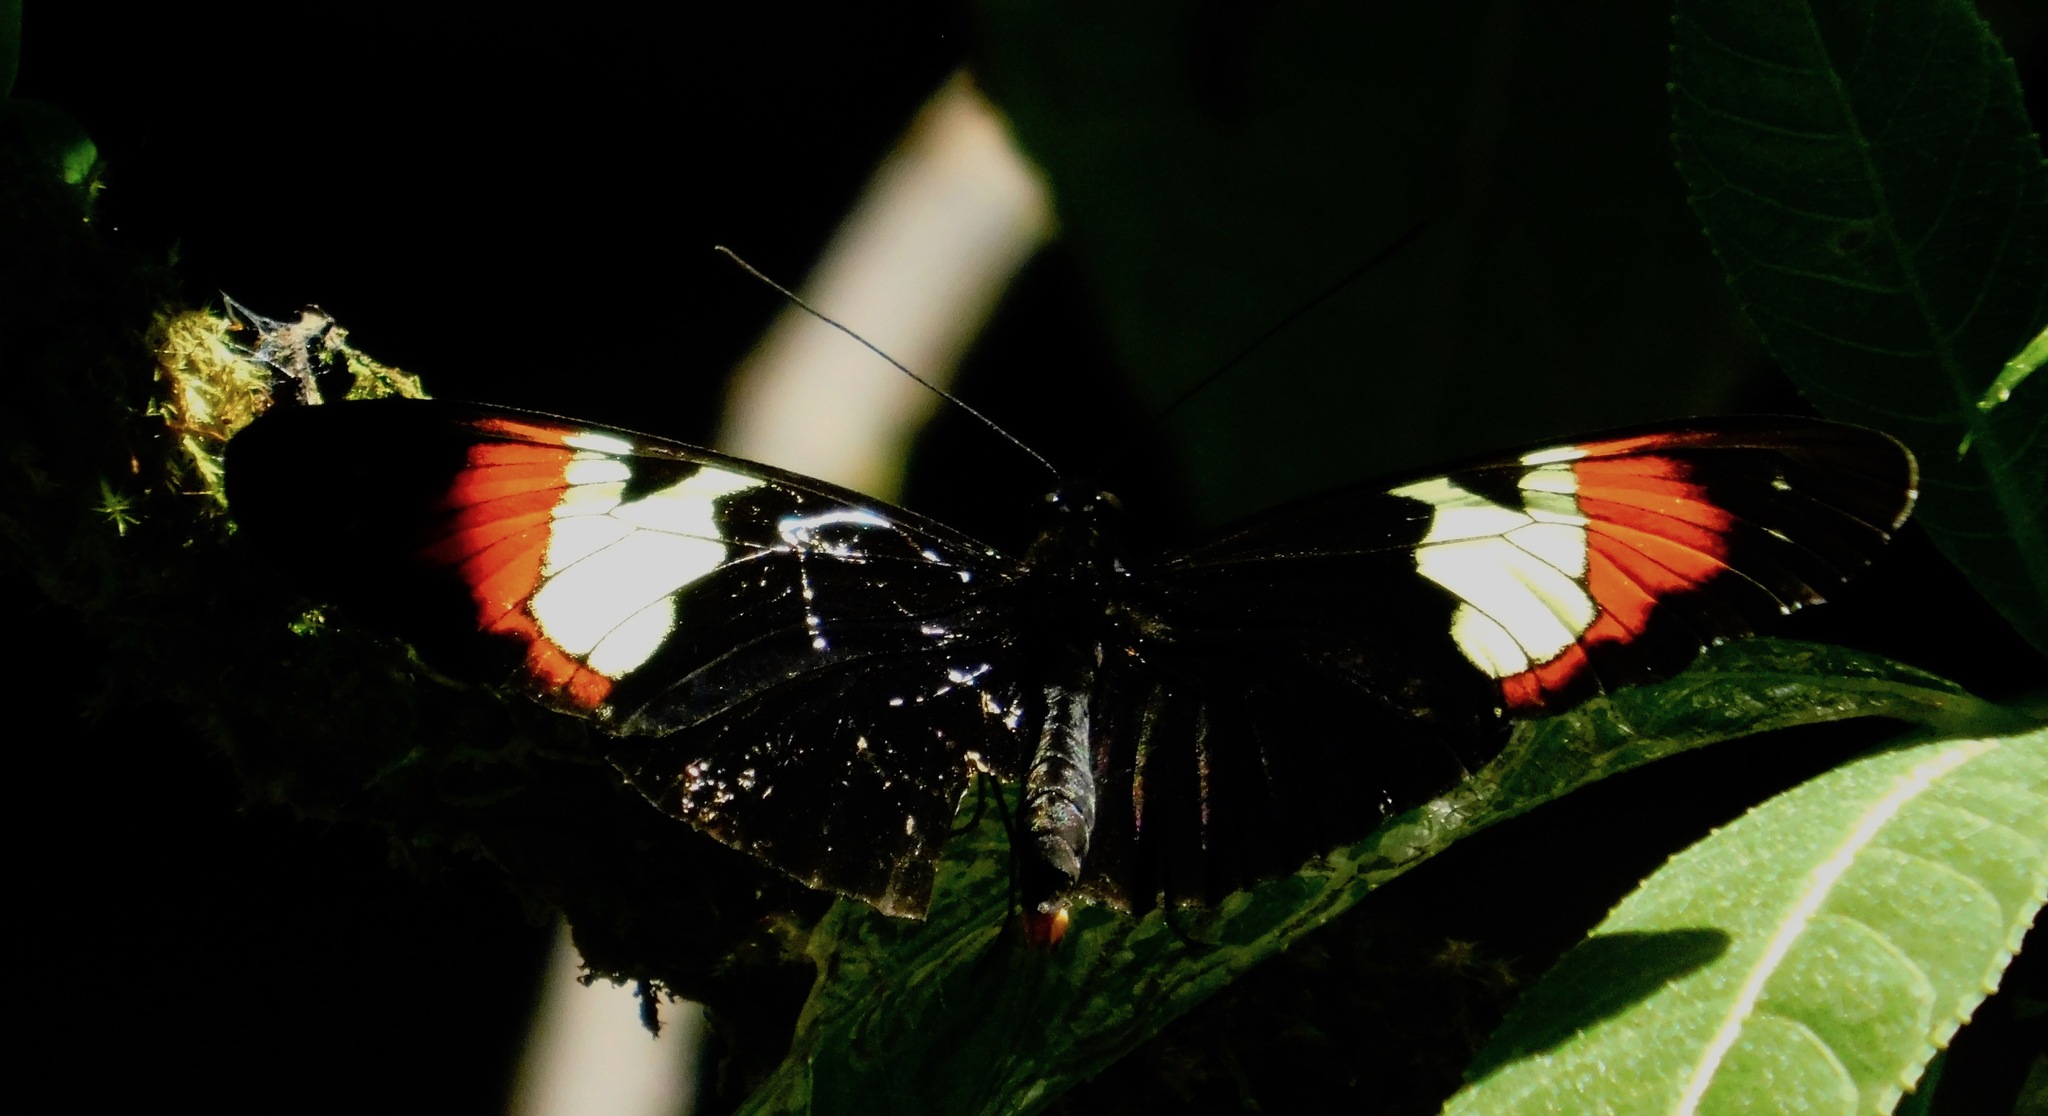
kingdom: Animalia
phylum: Arthropoda
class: Insecta
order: Lepidoptera
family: Nymphalidae
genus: Heliconius
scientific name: Heliconius heurippa
